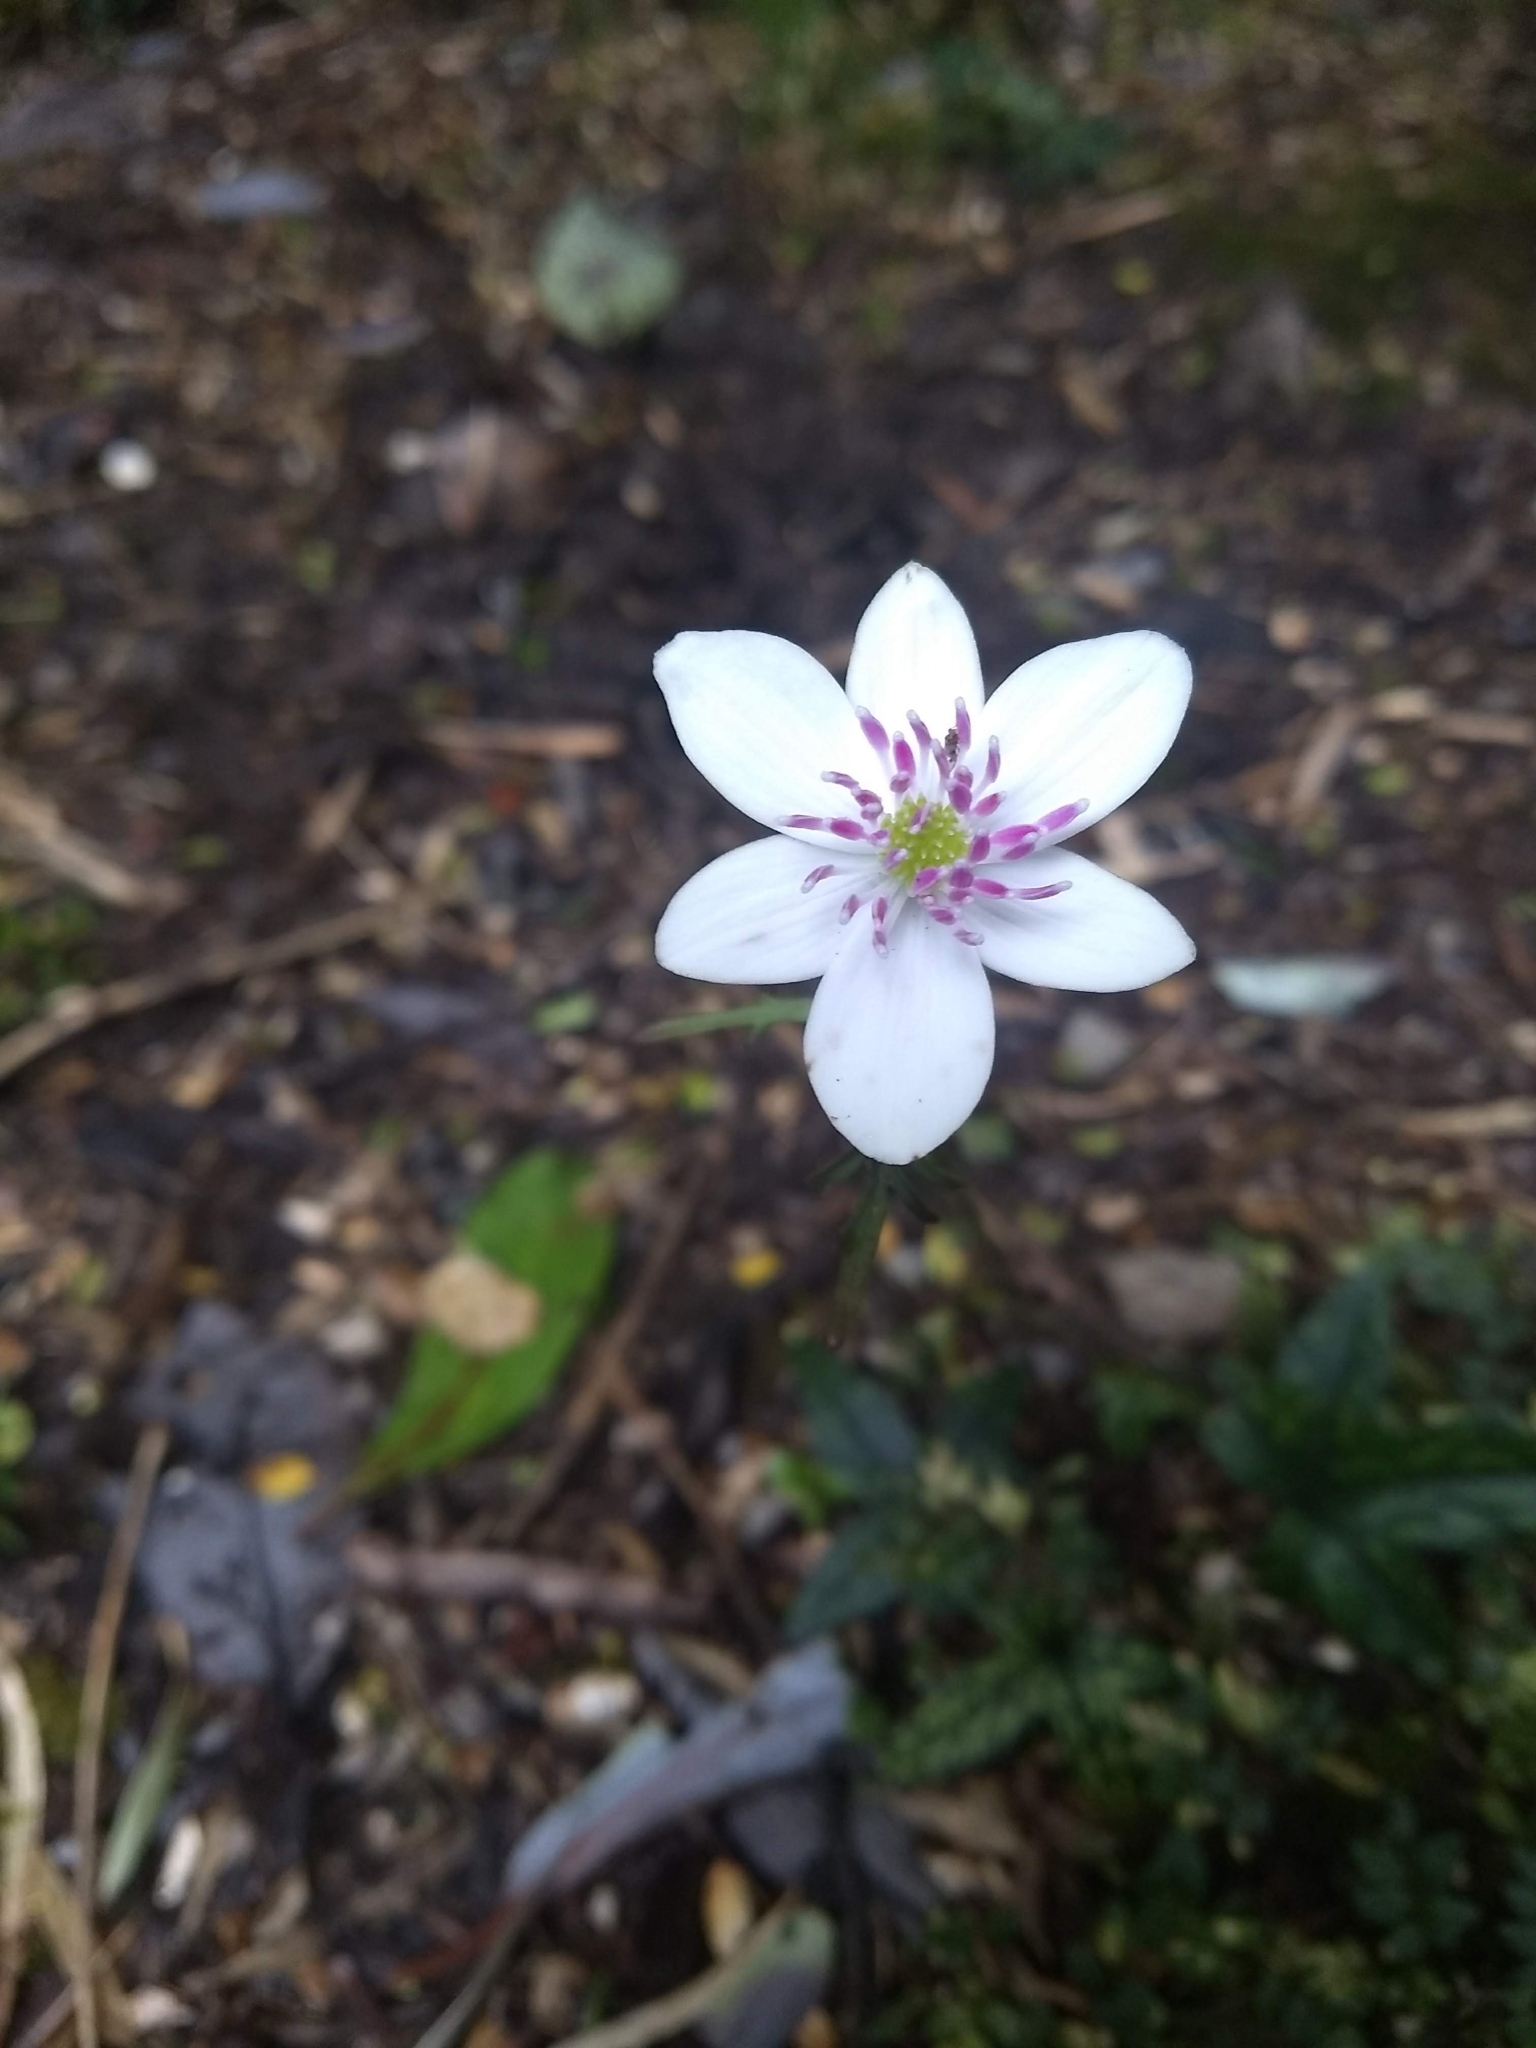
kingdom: Plantae
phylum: Tracheophyta
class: Magnoliopsida
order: Ranunculales
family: Ranunculaceae
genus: Knowltonia
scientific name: Knowltonia hepaticifolia
